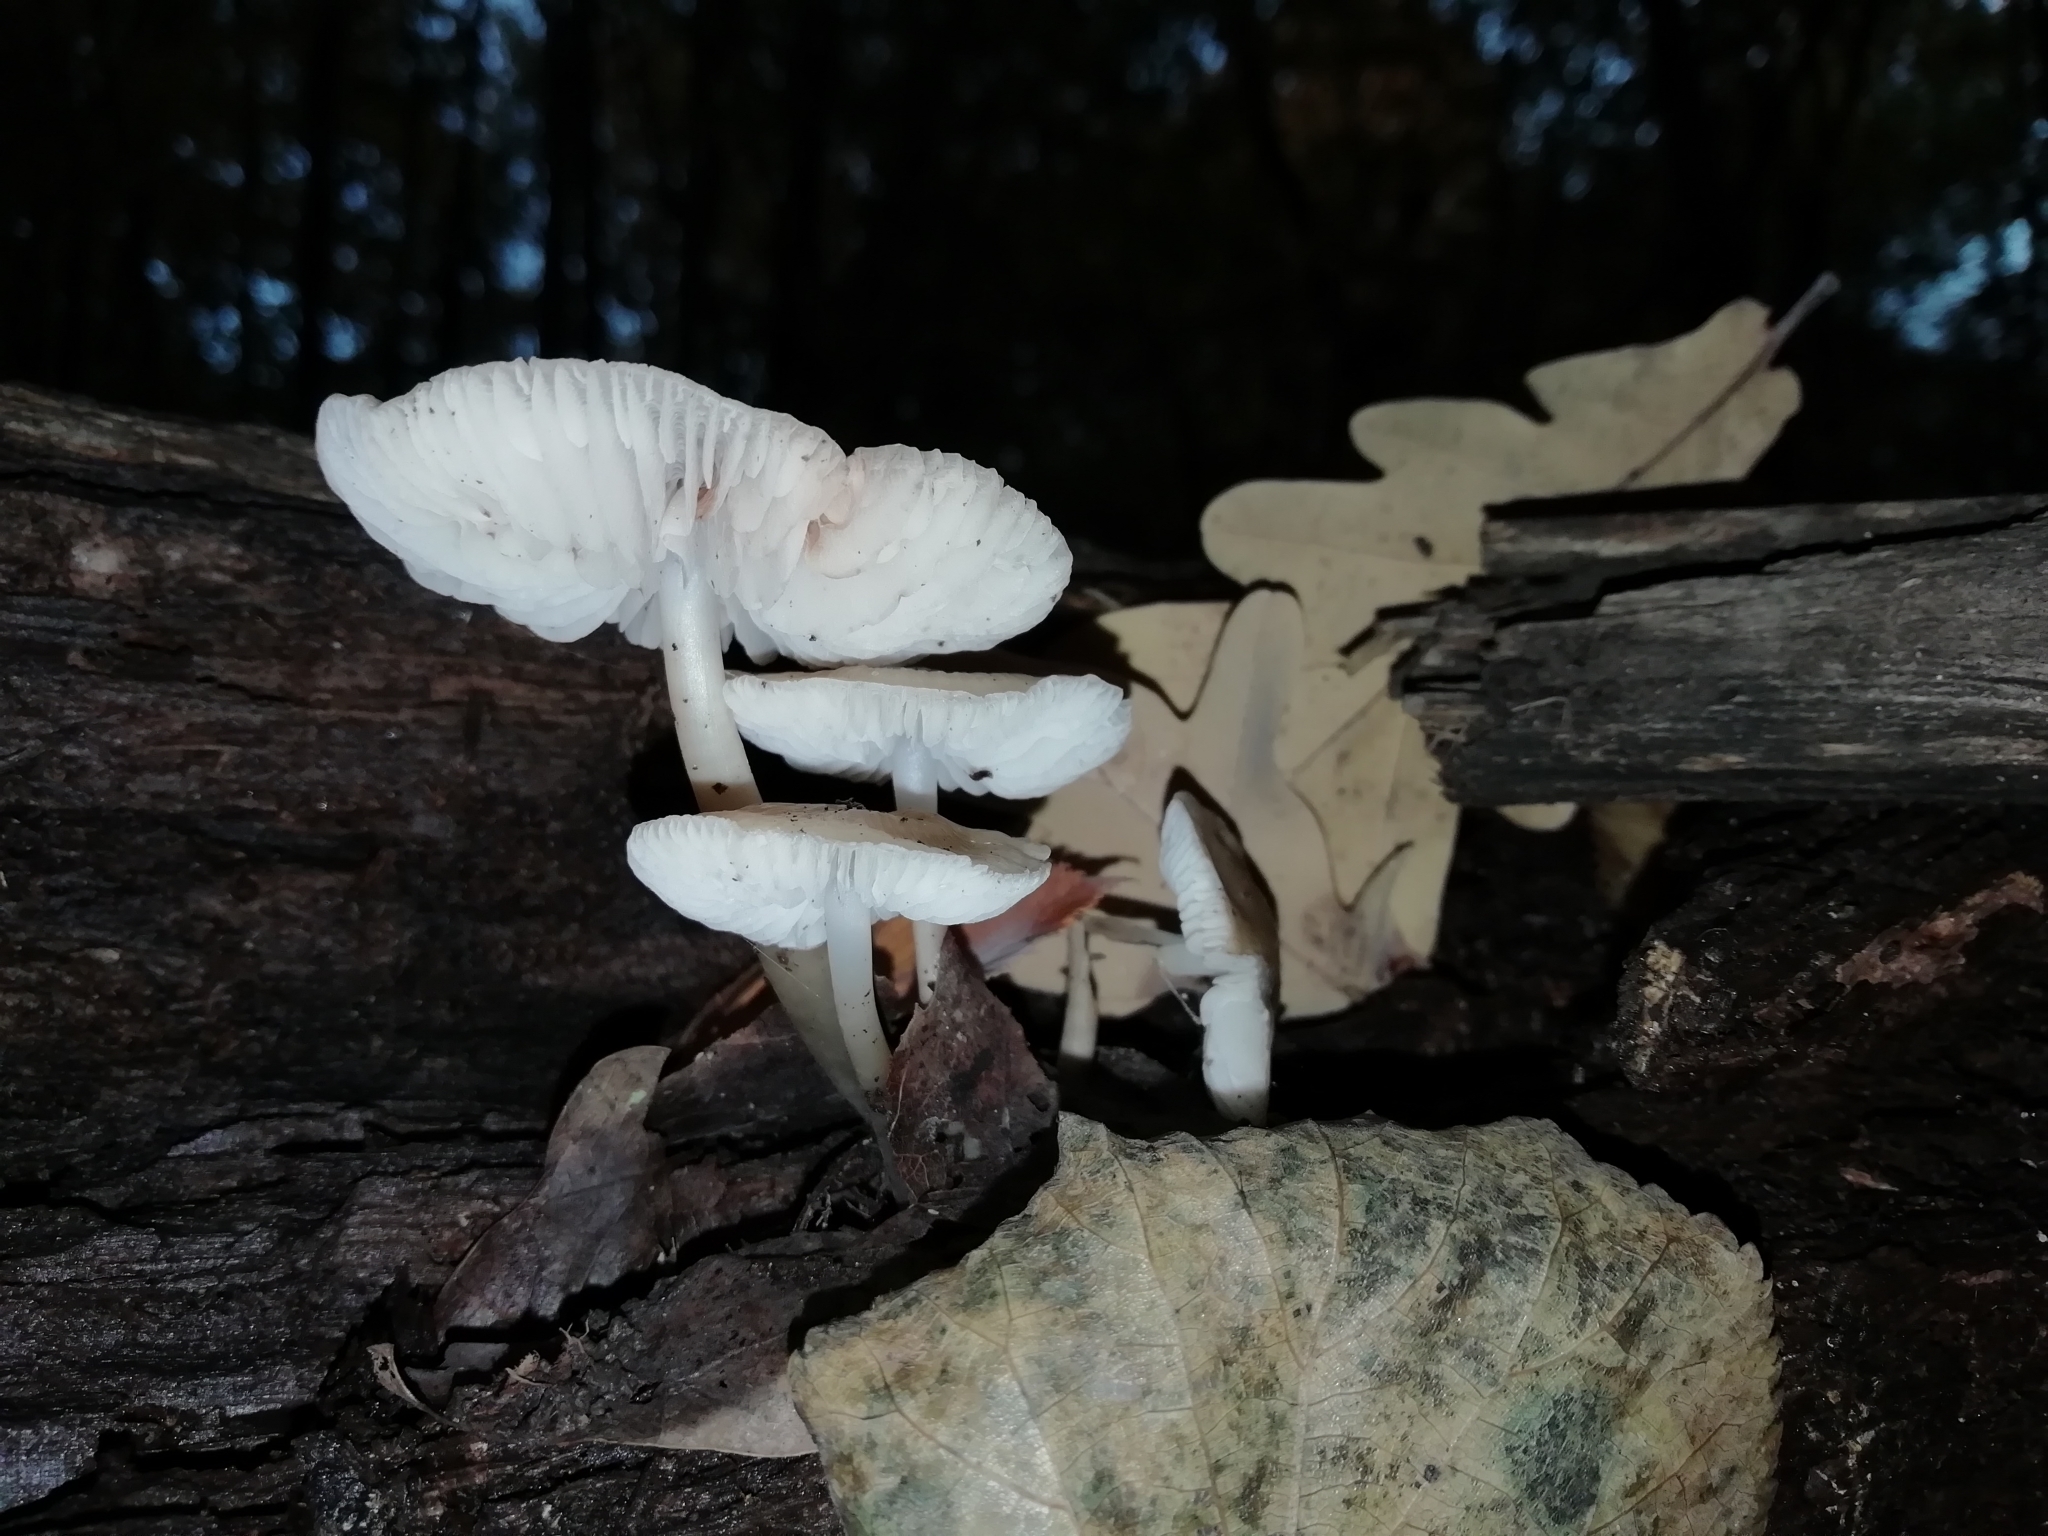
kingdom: Fungi
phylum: Basidiomycota
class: Agaricomycetes
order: Agaricales
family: Mycenaceae
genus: Mycena
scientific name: Mycena galericulata
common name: Bonnet mycena
